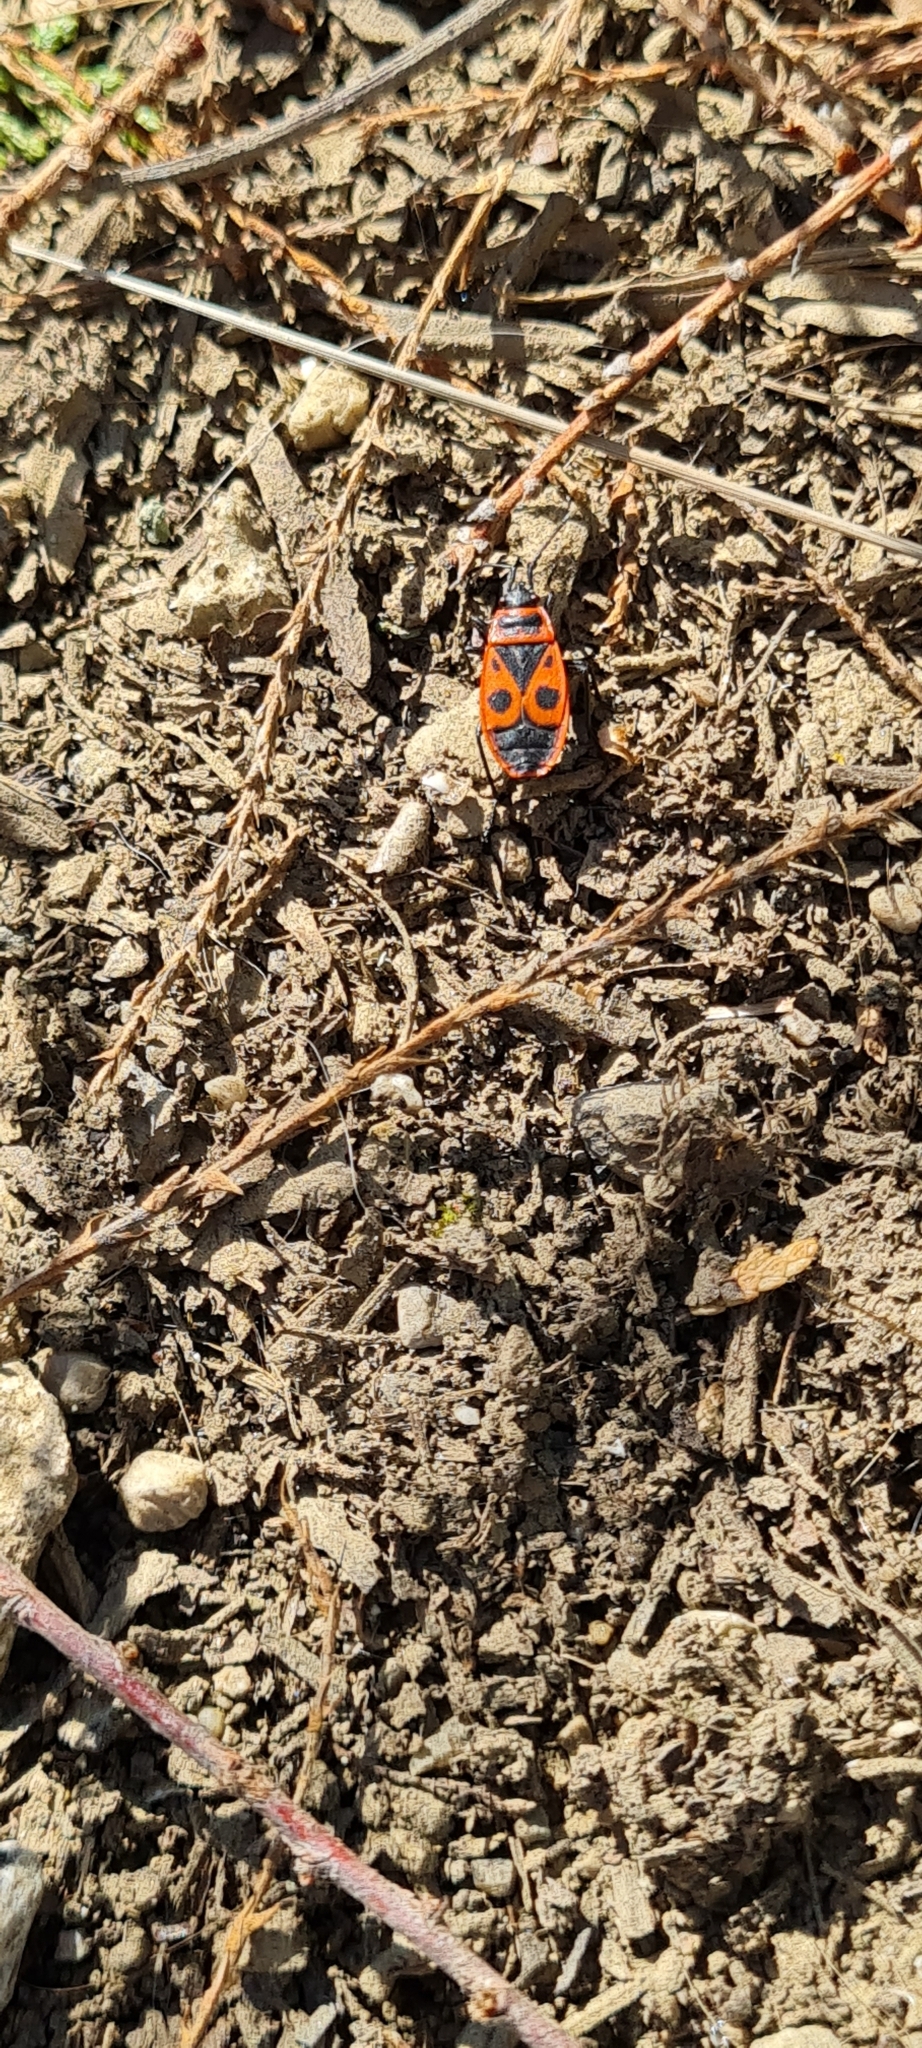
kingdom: Animalia
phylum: Arthropoda
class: Insecta
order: Hemiptera
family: Pyrrhocoridae
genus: Pyrrhocoris
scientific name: Pyrrhocoris apterus
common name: Firebug
